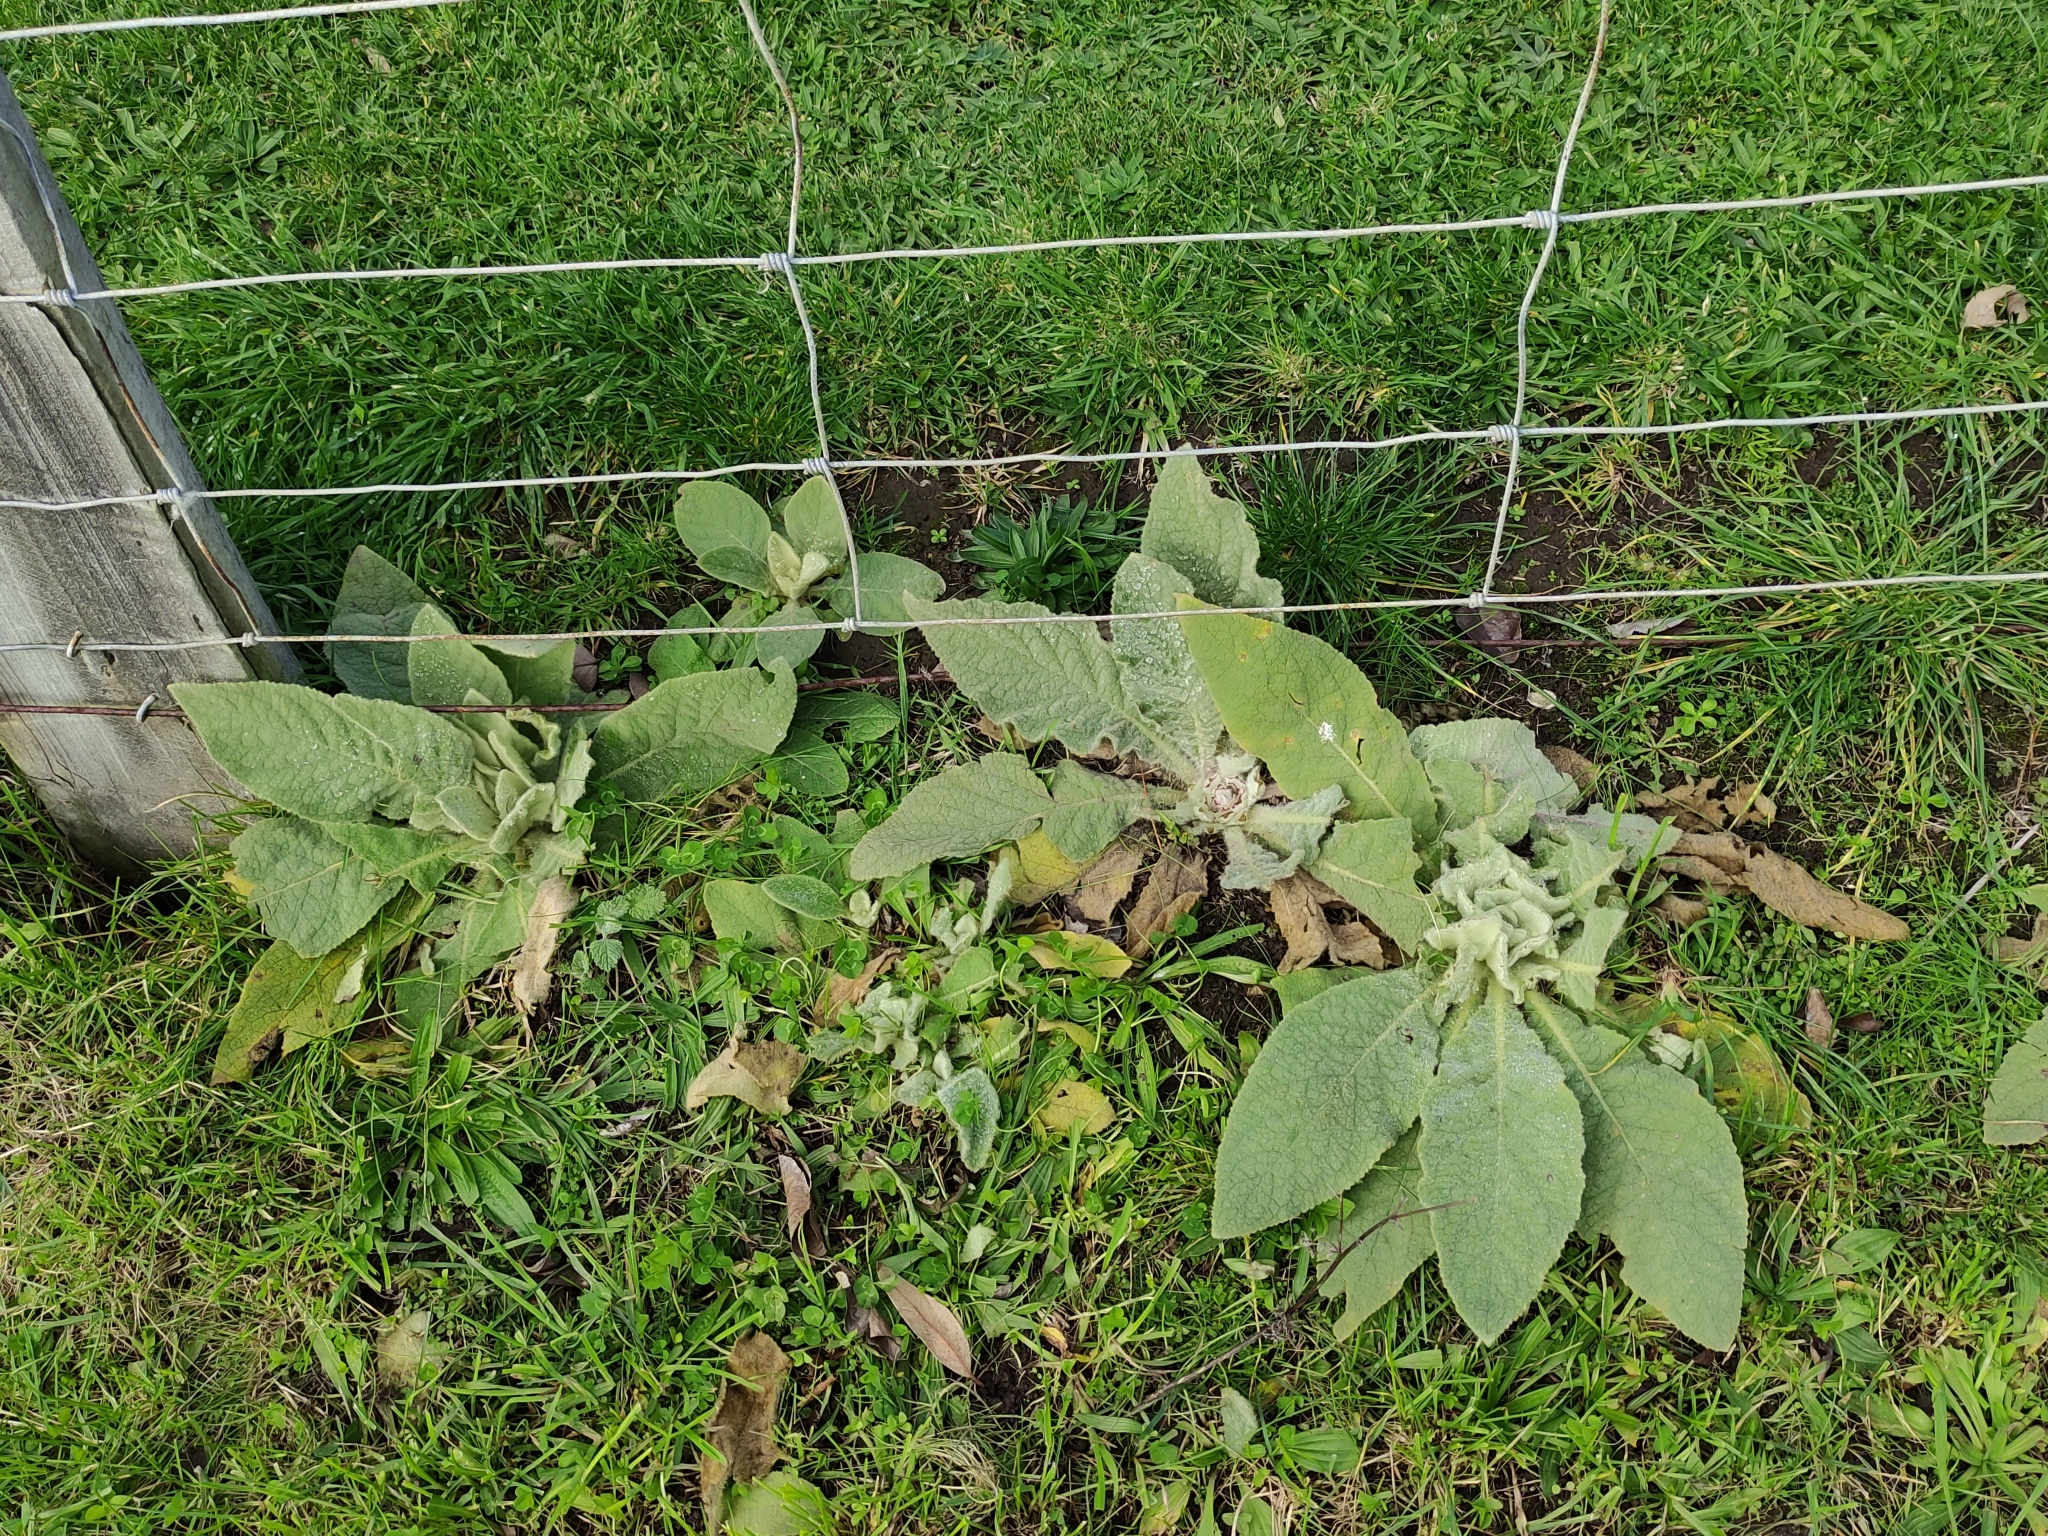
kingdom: Plantae
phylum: Tracheophyta
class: Magnoliopsida
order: Lamiales
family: Scrophulariaceae
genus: Verbascum
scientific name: Verbascum thapsus
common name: Common mullein
